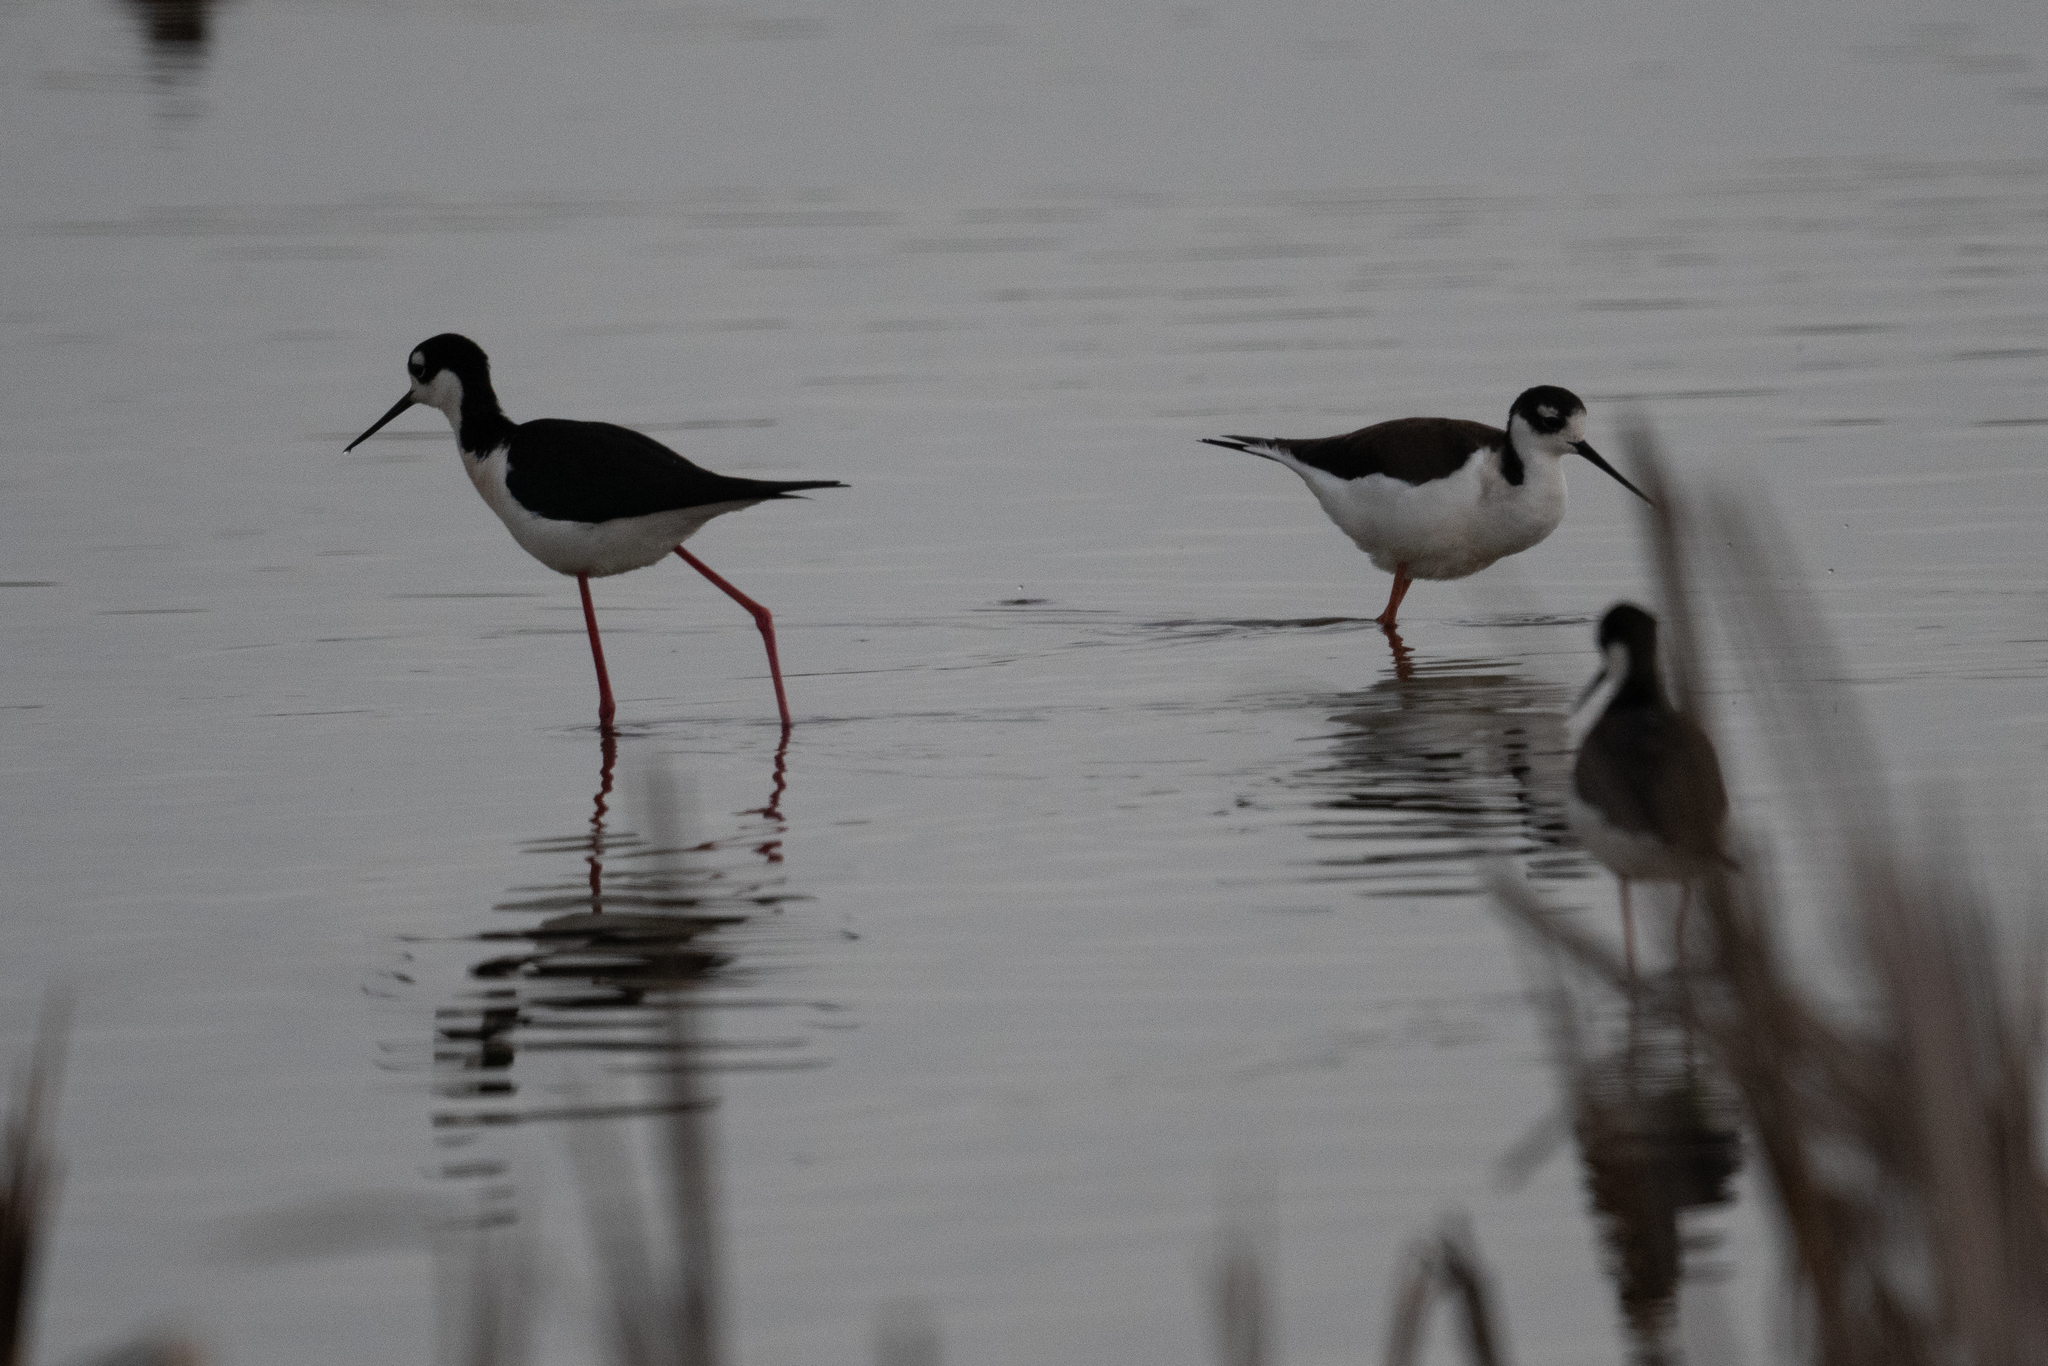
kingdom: Animalia
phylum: Chordata
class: Aves
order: Charadriiformes
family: Recurvirostridae
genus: Himantopus
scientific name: Himantopus mexicanus
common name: Black-necked stilt
